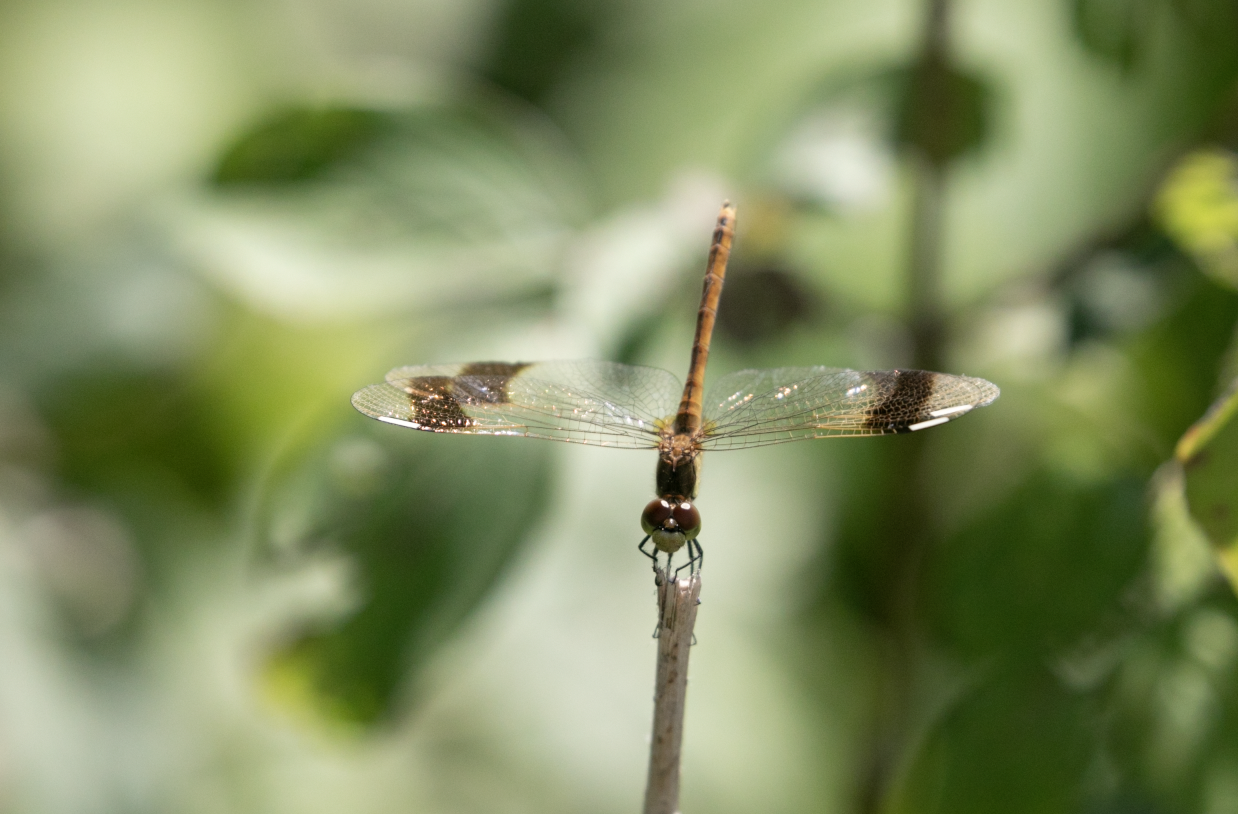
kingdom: Animalia
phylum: Arthropoda
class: Insecta
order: Odonata
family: Libellulidae
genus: Sympetrum
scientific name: Sympetrum pedemontanum
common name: Banded darter
